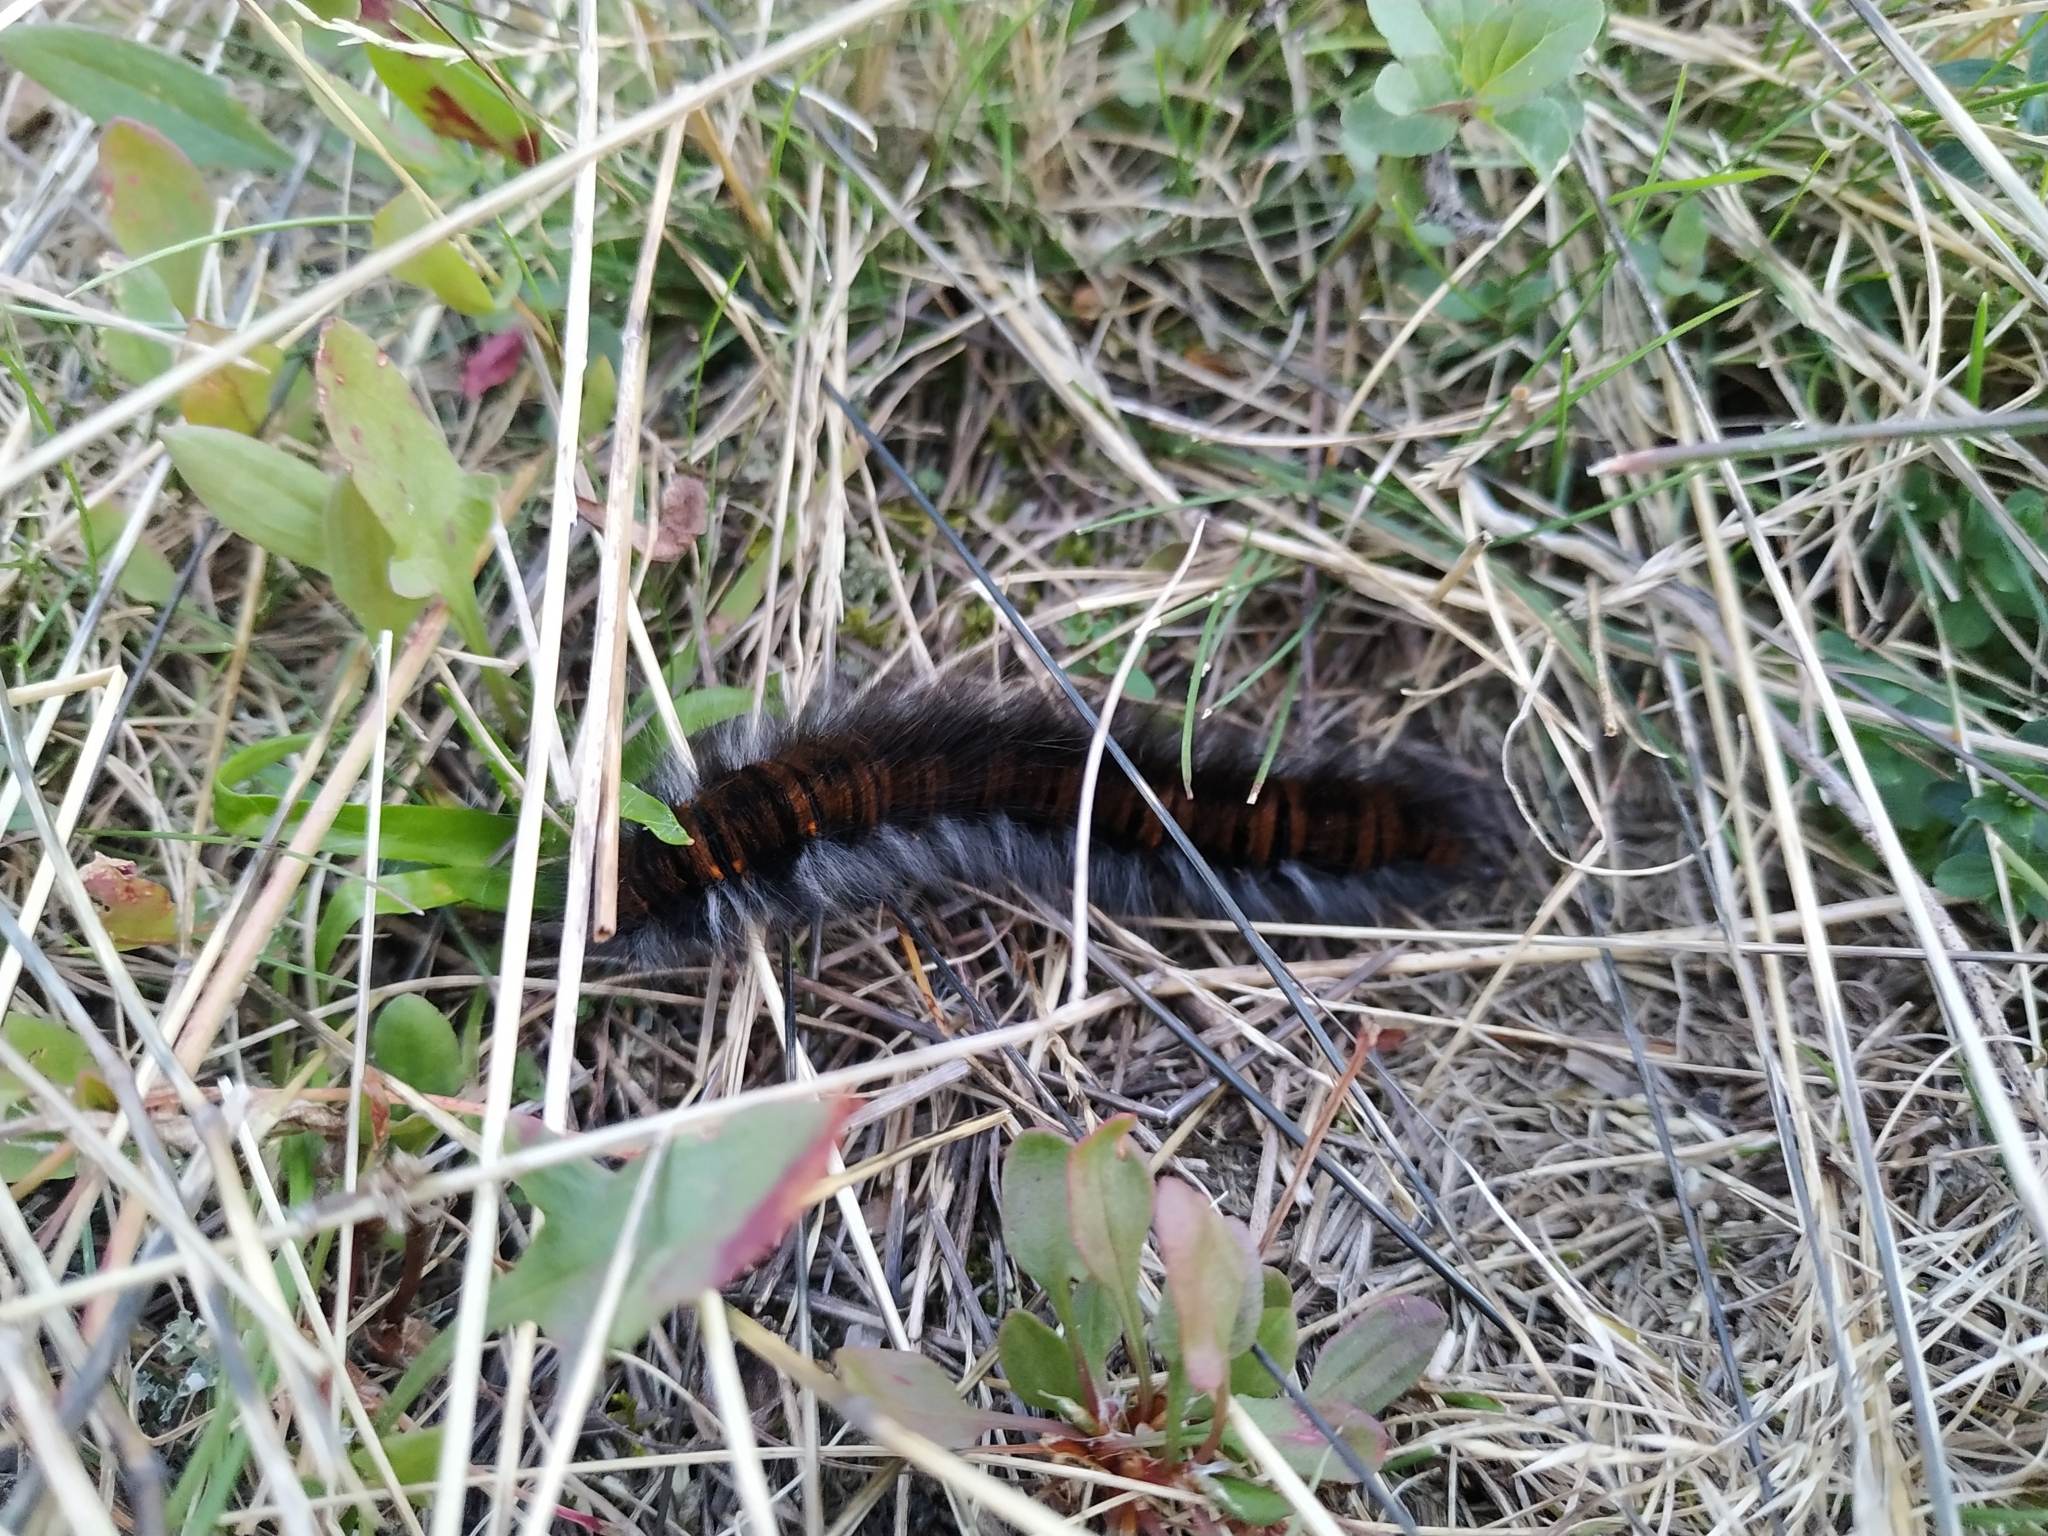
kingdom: Animalia
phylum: Arthropoda
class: Insecta
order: Lepidoptera
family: Lasiocampidae
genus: Macrothylacia
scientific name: Macrothylacia rubi
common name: Fox moth
